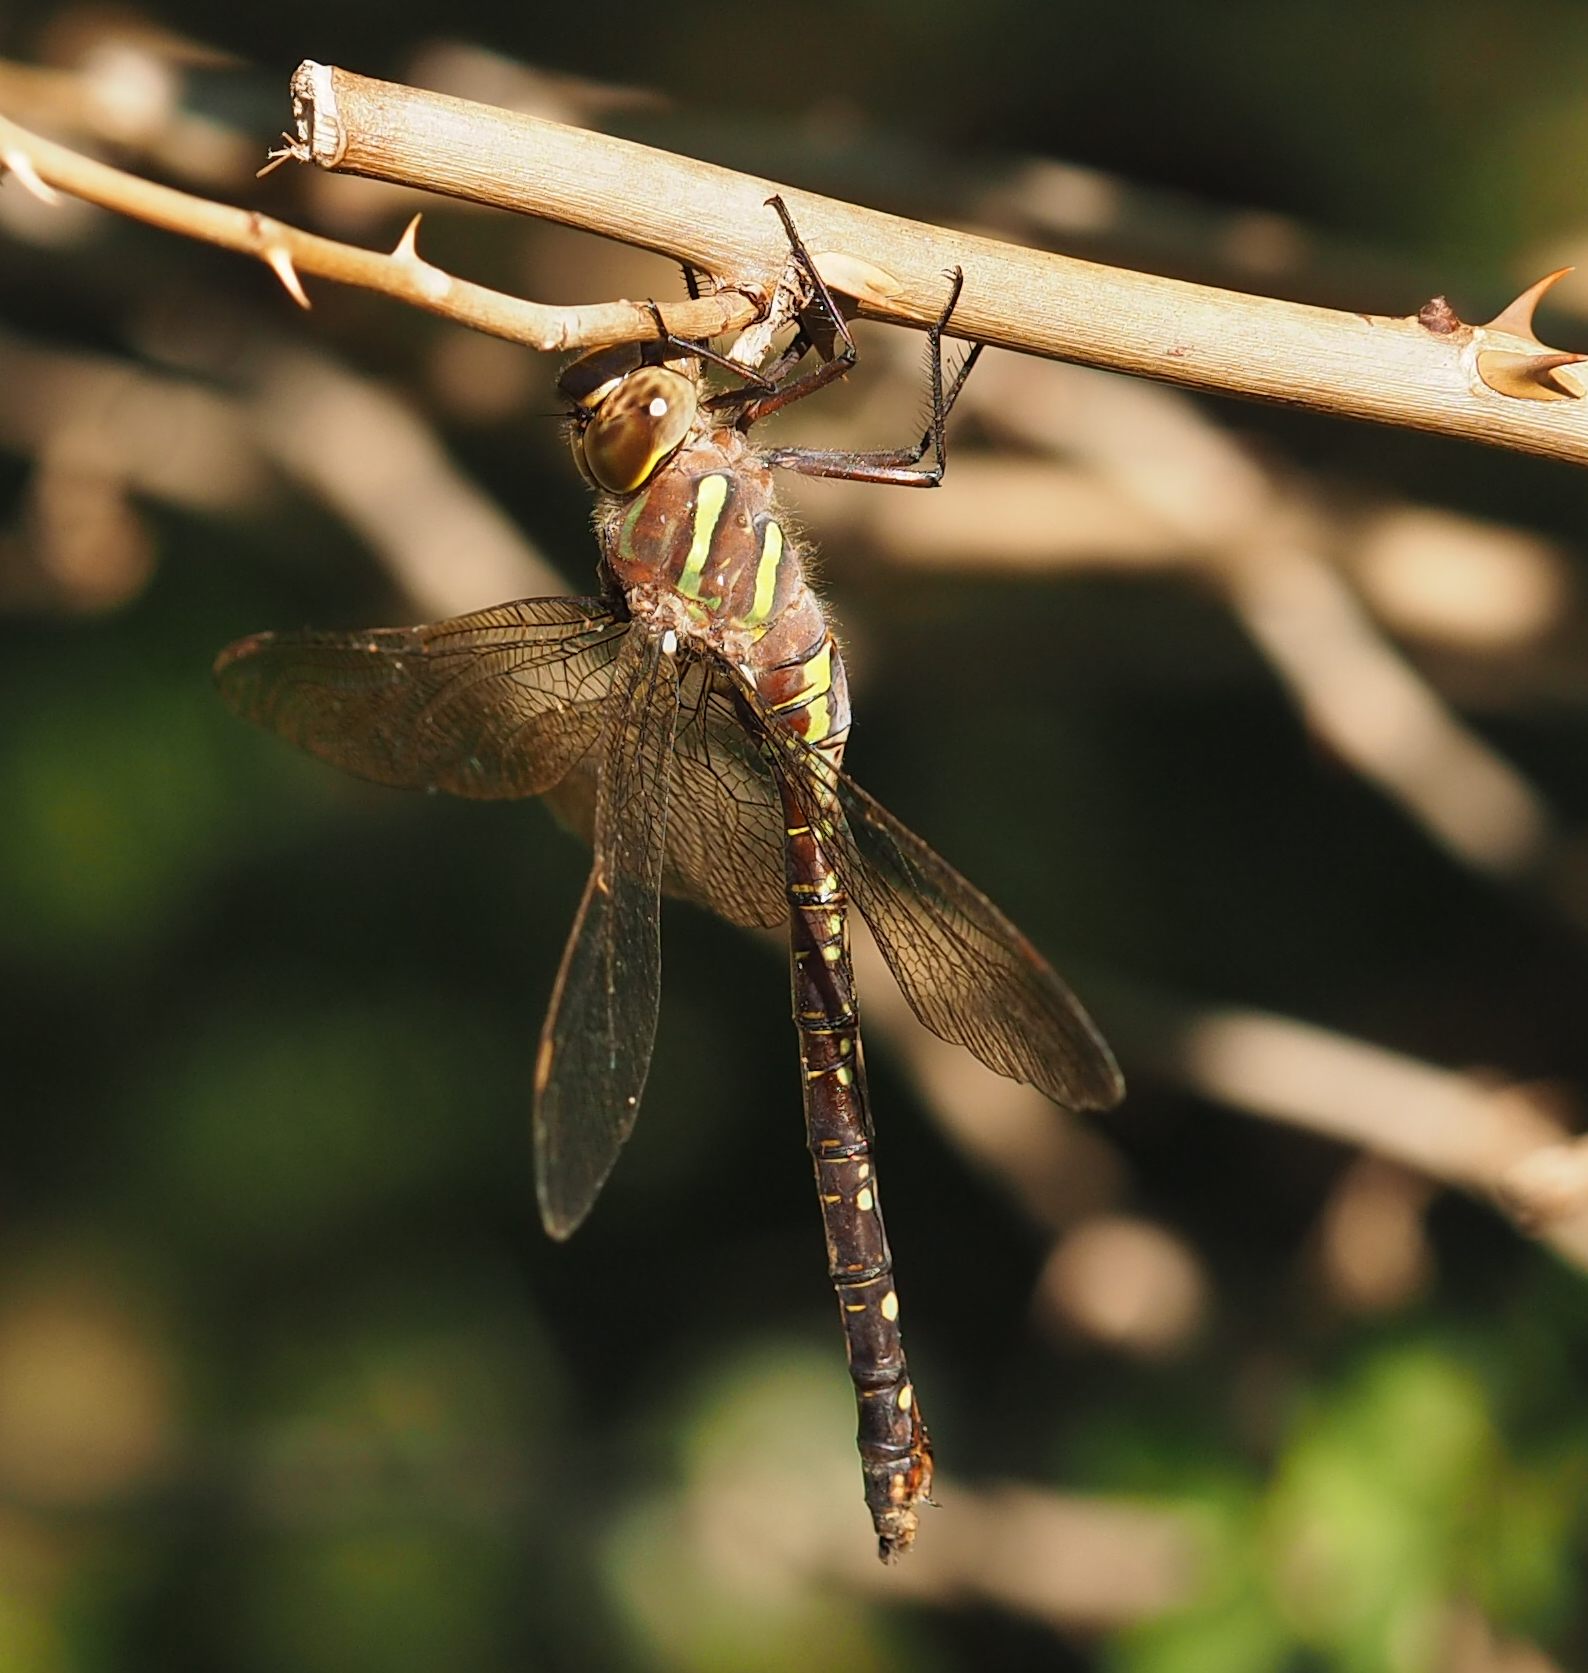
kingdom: Animalia
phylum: Arthropoda
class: Insecta
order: Odonata
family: Aeshnidae
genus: Aeshna
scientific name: Aeshna umbrosa
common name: Shadow darner
